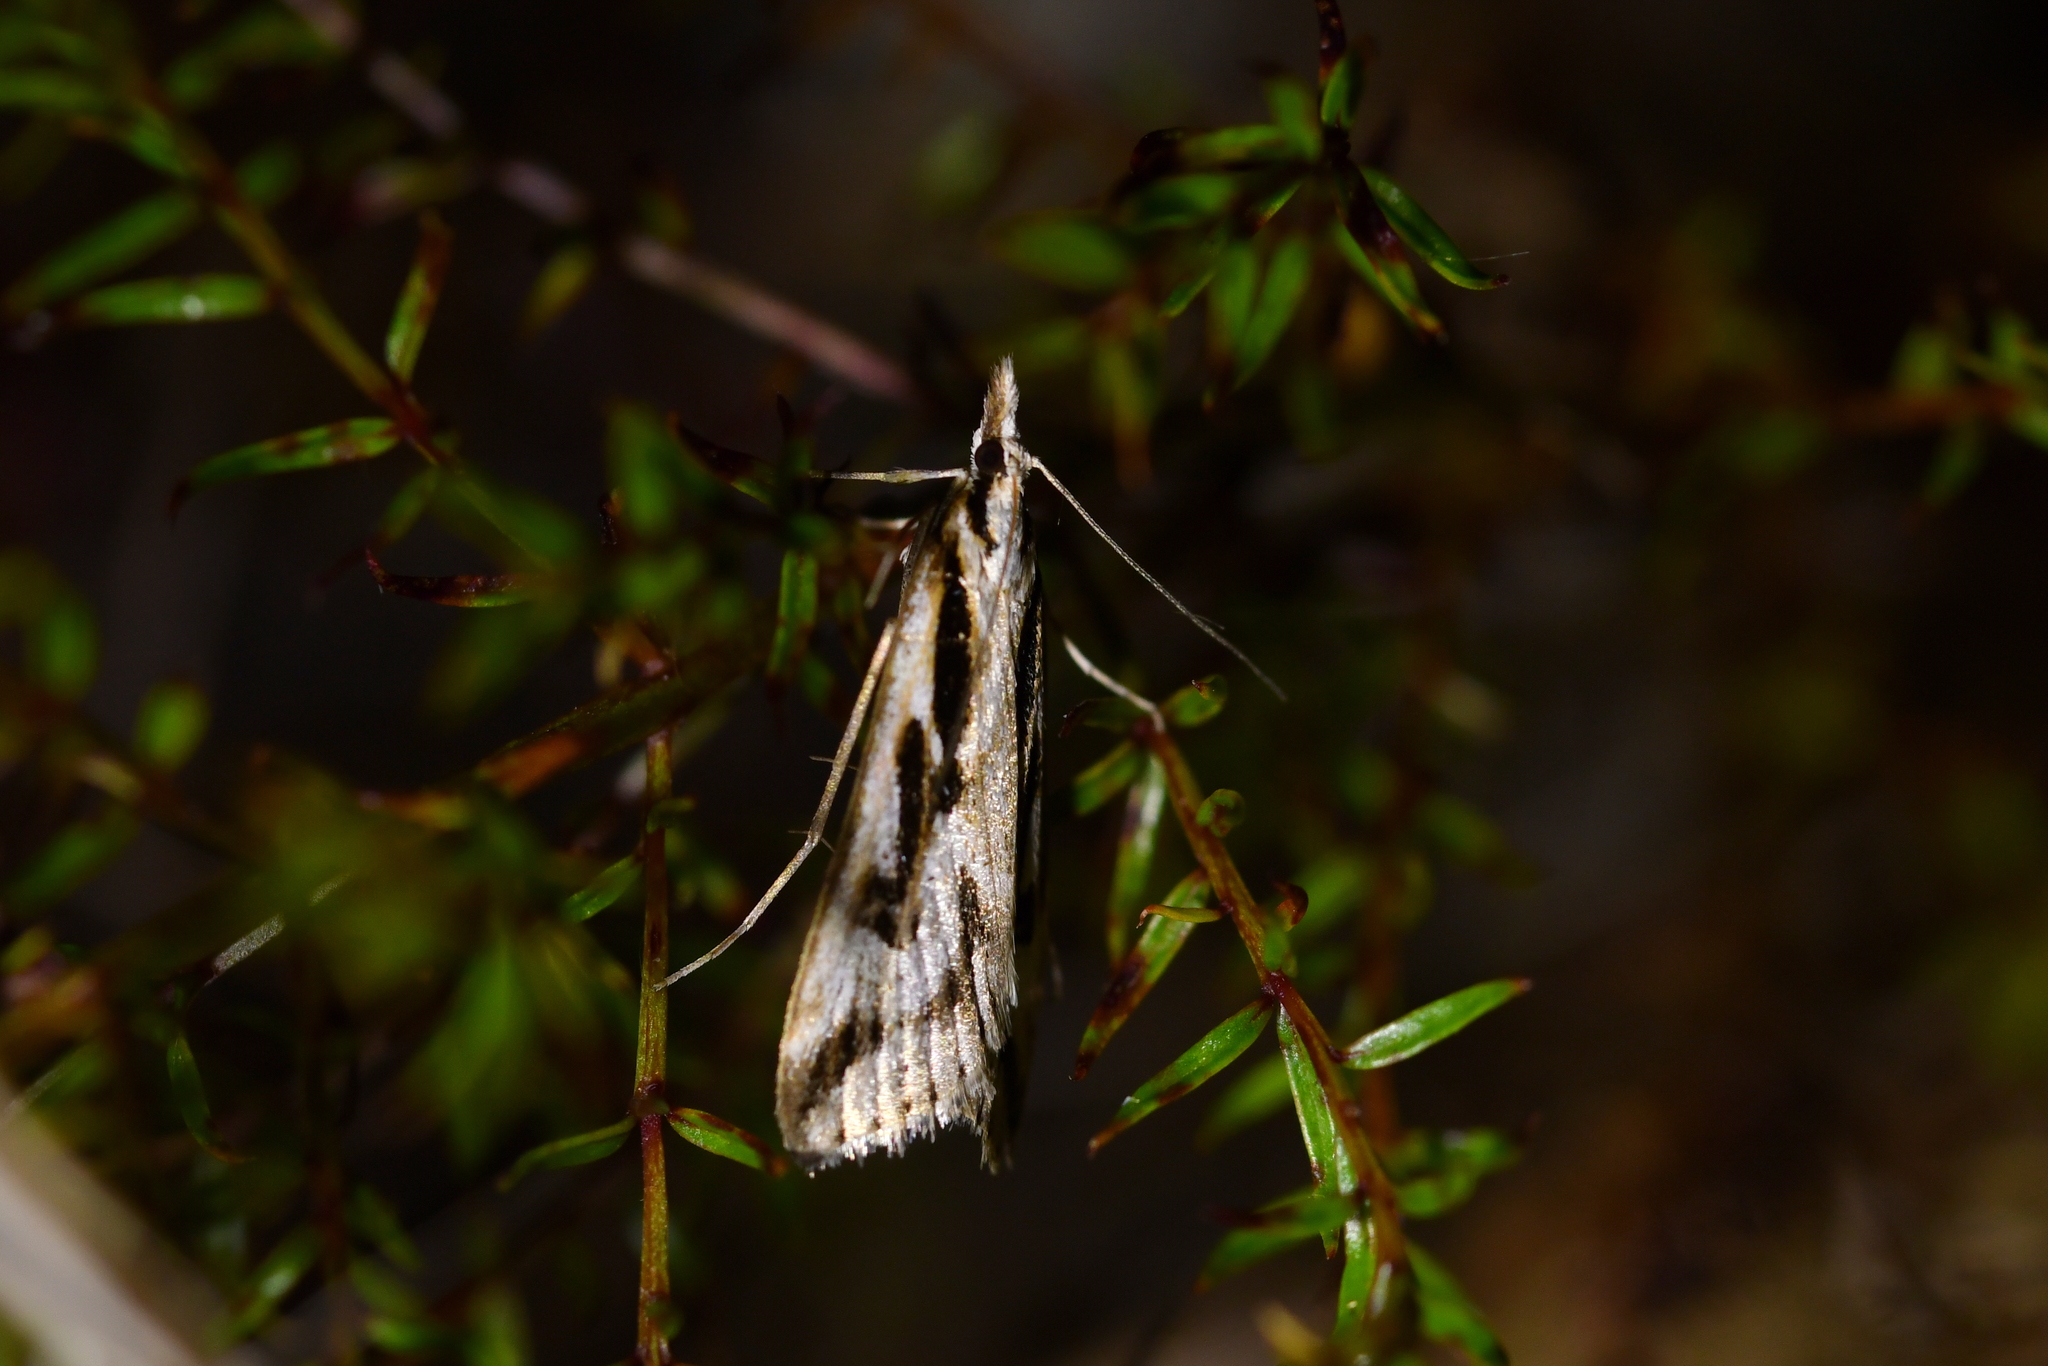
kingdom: Animalia
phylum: Arthropoda
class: Insecta
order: Lepidoptera
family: Crambidae
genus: Scoparia
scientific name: Scoparia clavata
